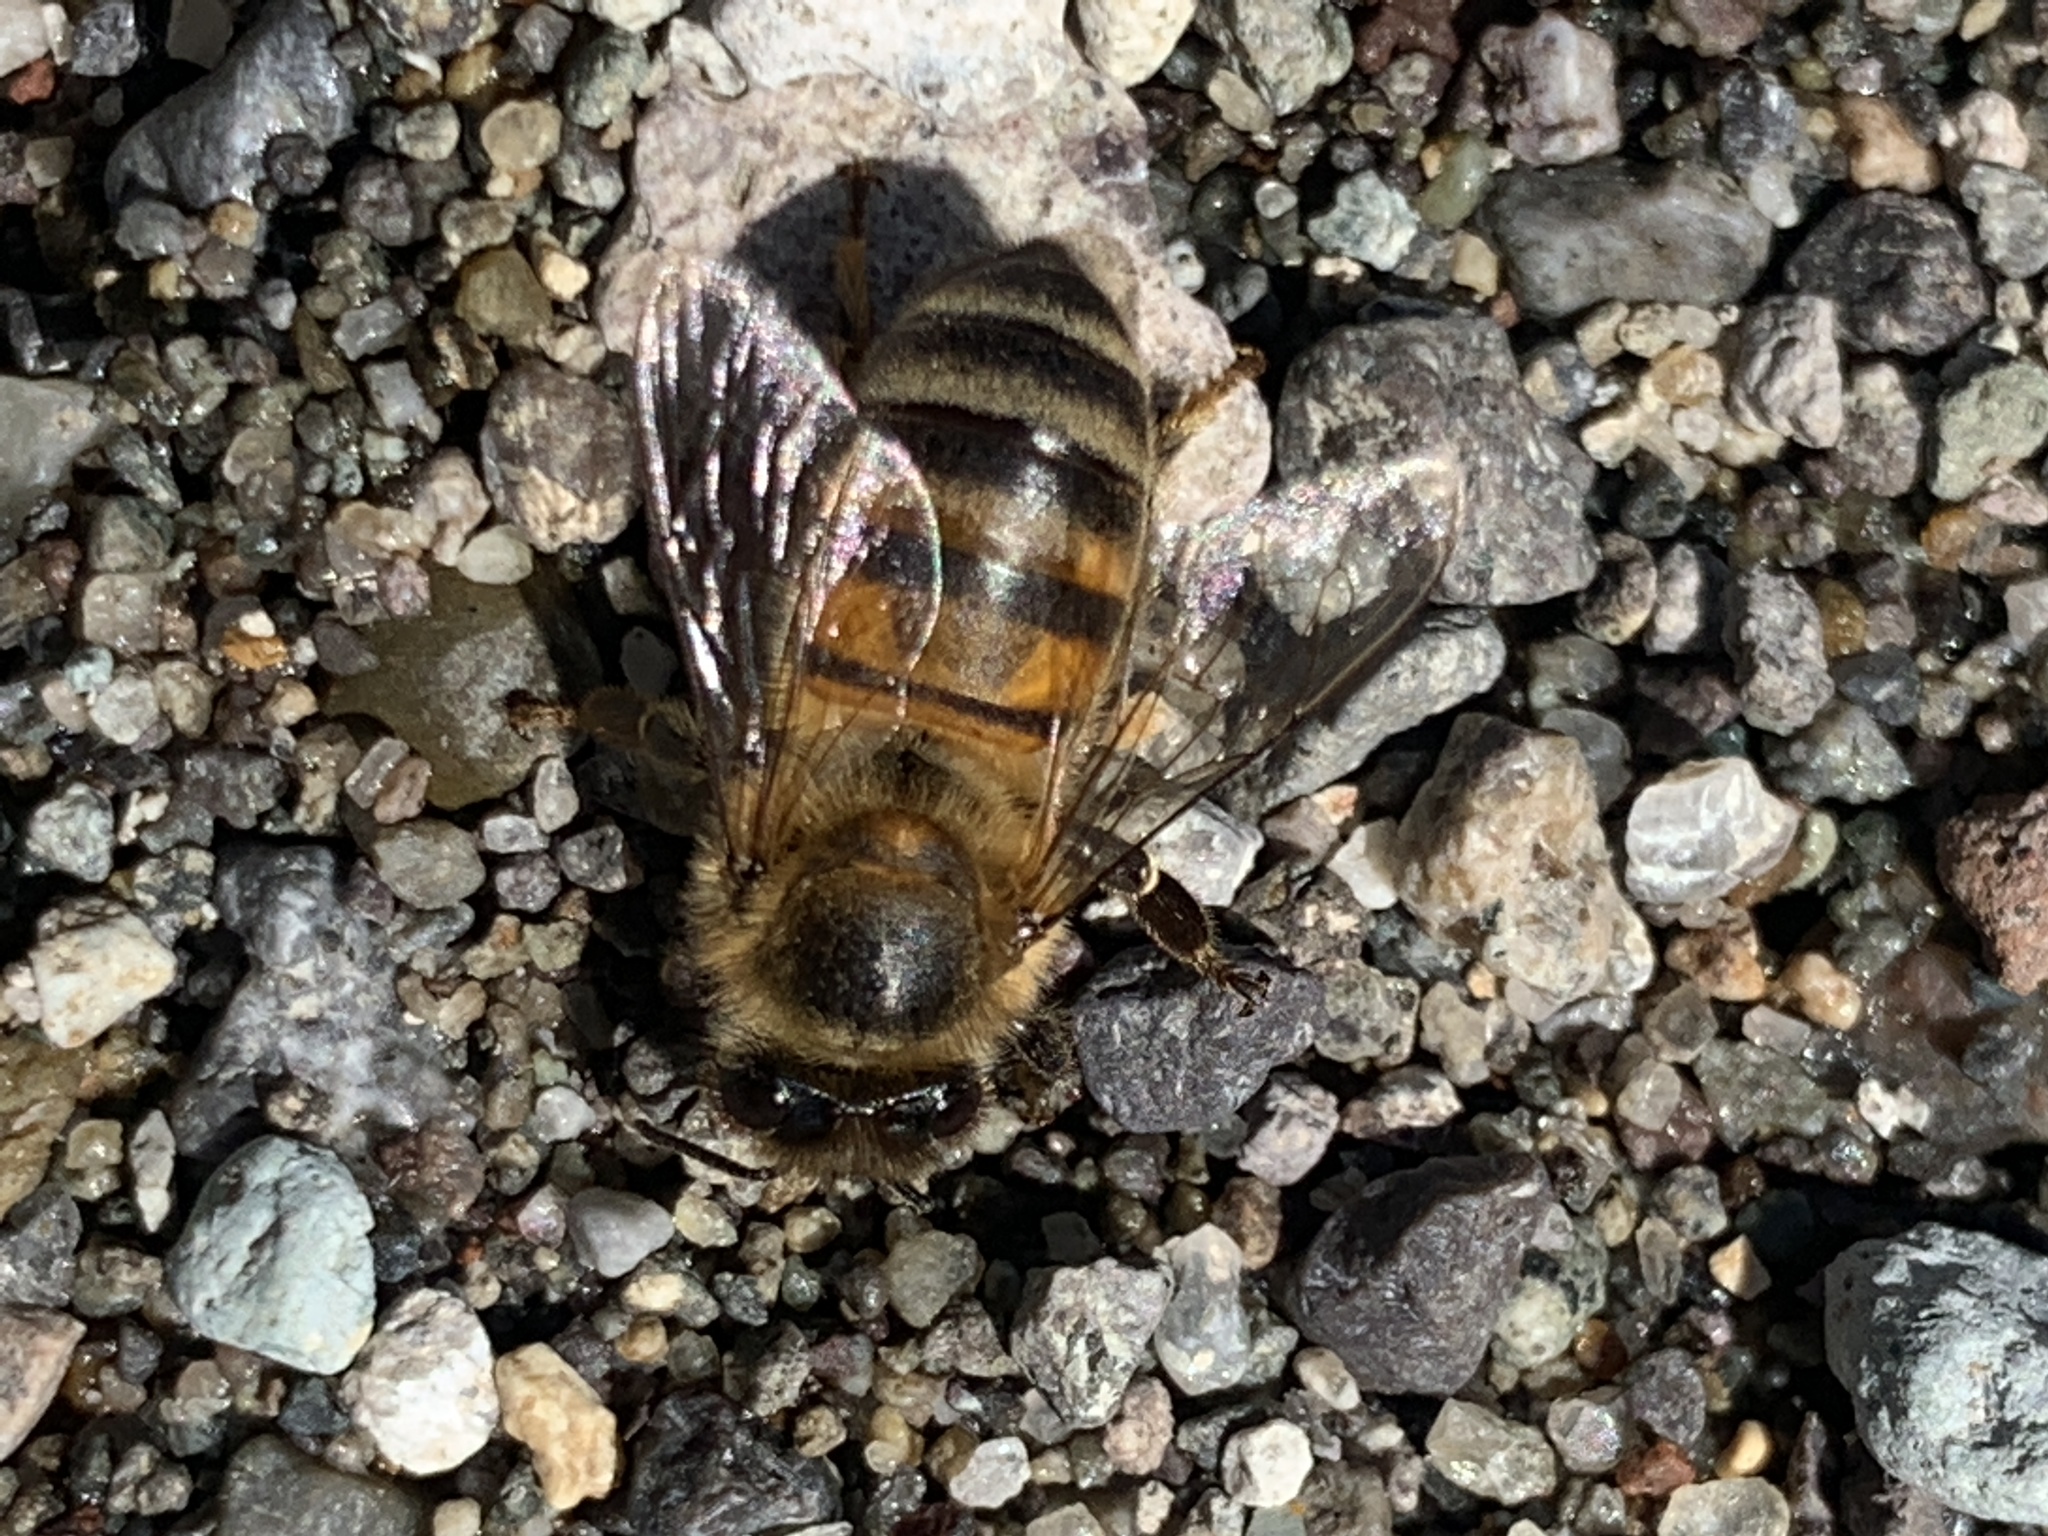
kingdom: Animalia
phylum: Arthropoda
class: Insecta
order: Hymenoptera
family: Apidae
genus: Apis
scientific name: Apis mellifera
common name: Honey bee
